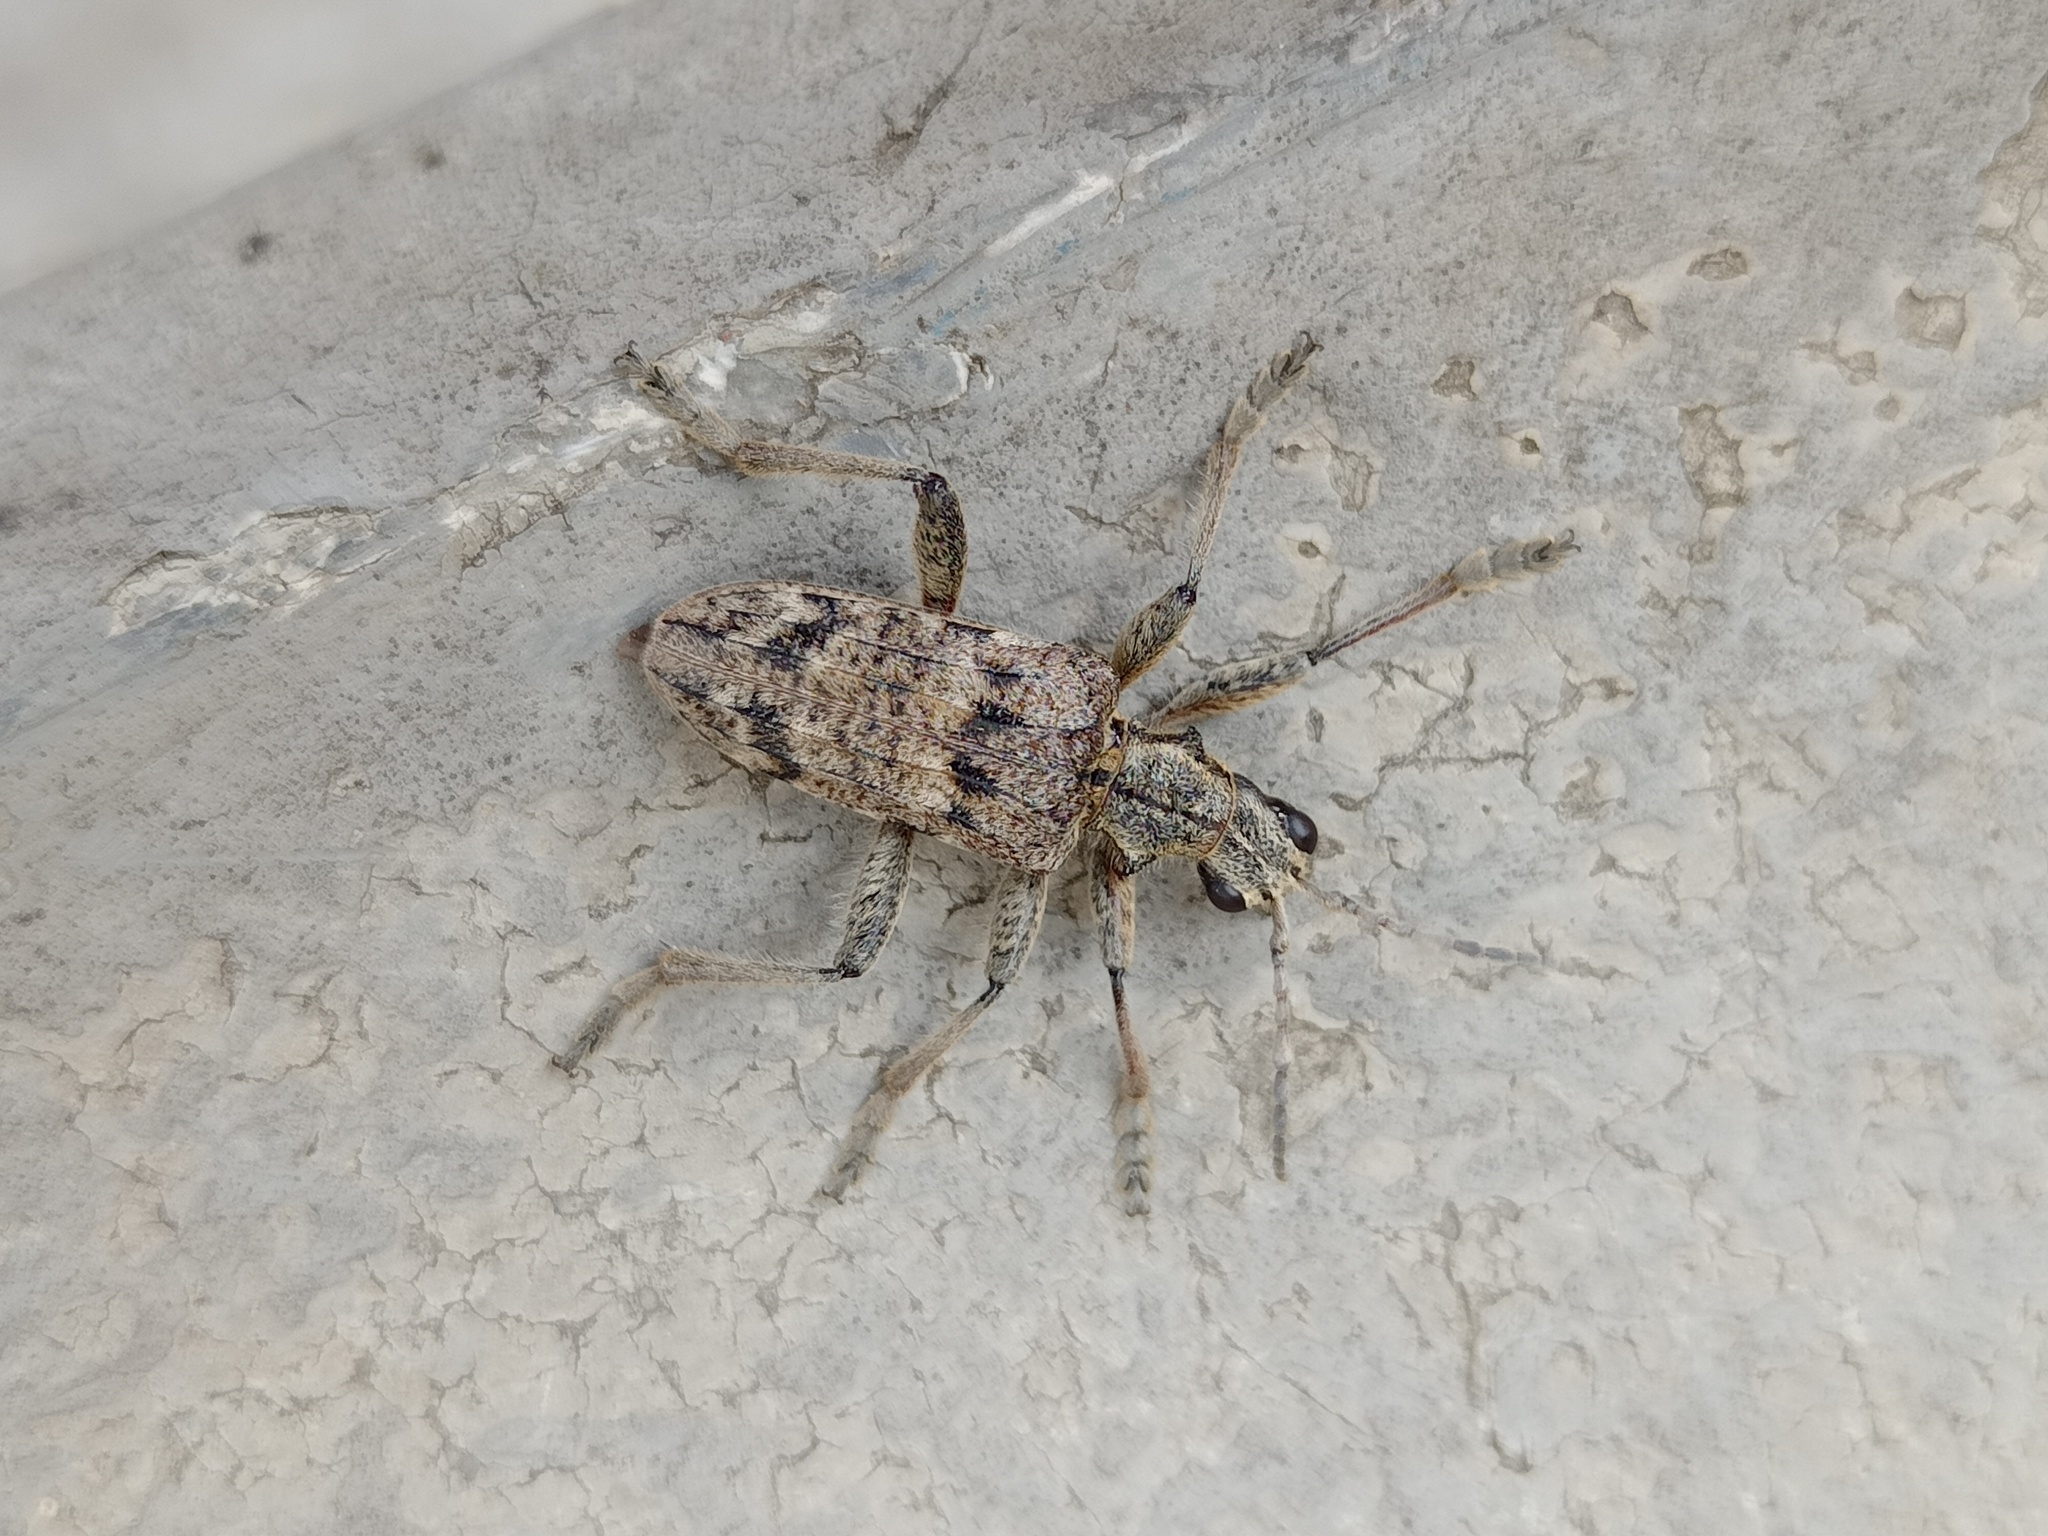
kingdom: Animalia
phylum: Arthropoda
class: Insecta
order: Coleoptera
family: Cerambycidae
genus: Rhagium
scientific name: Rhagium inquisitor
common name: Ribbed pine borer
